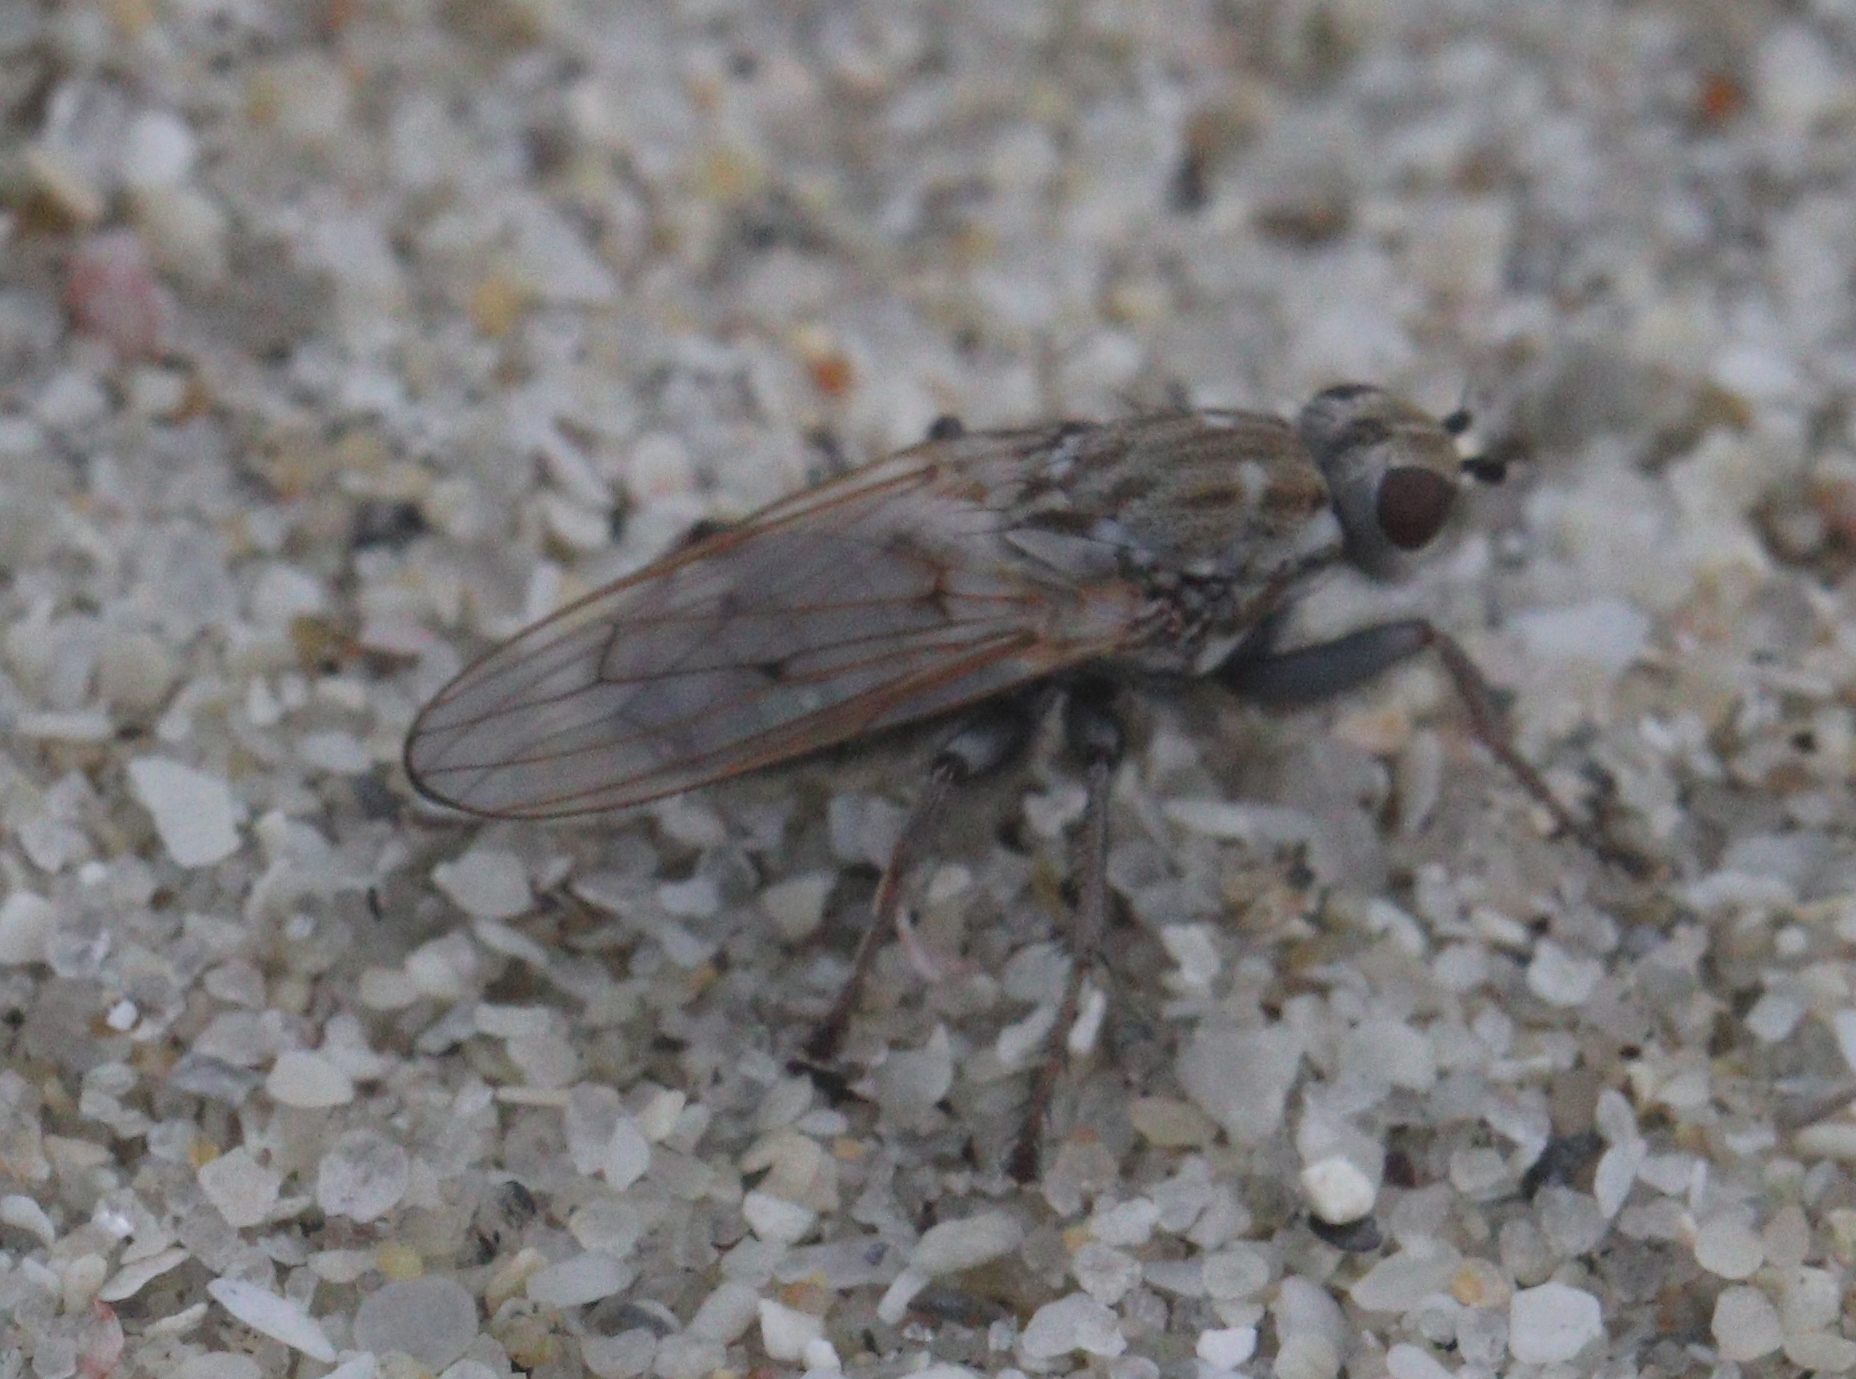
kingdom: Animalia
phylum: Arthropoda
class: Insecta
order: Diptera
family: Helcomyzidae
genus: Helcomyza
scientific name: Helcomyza ustulata
